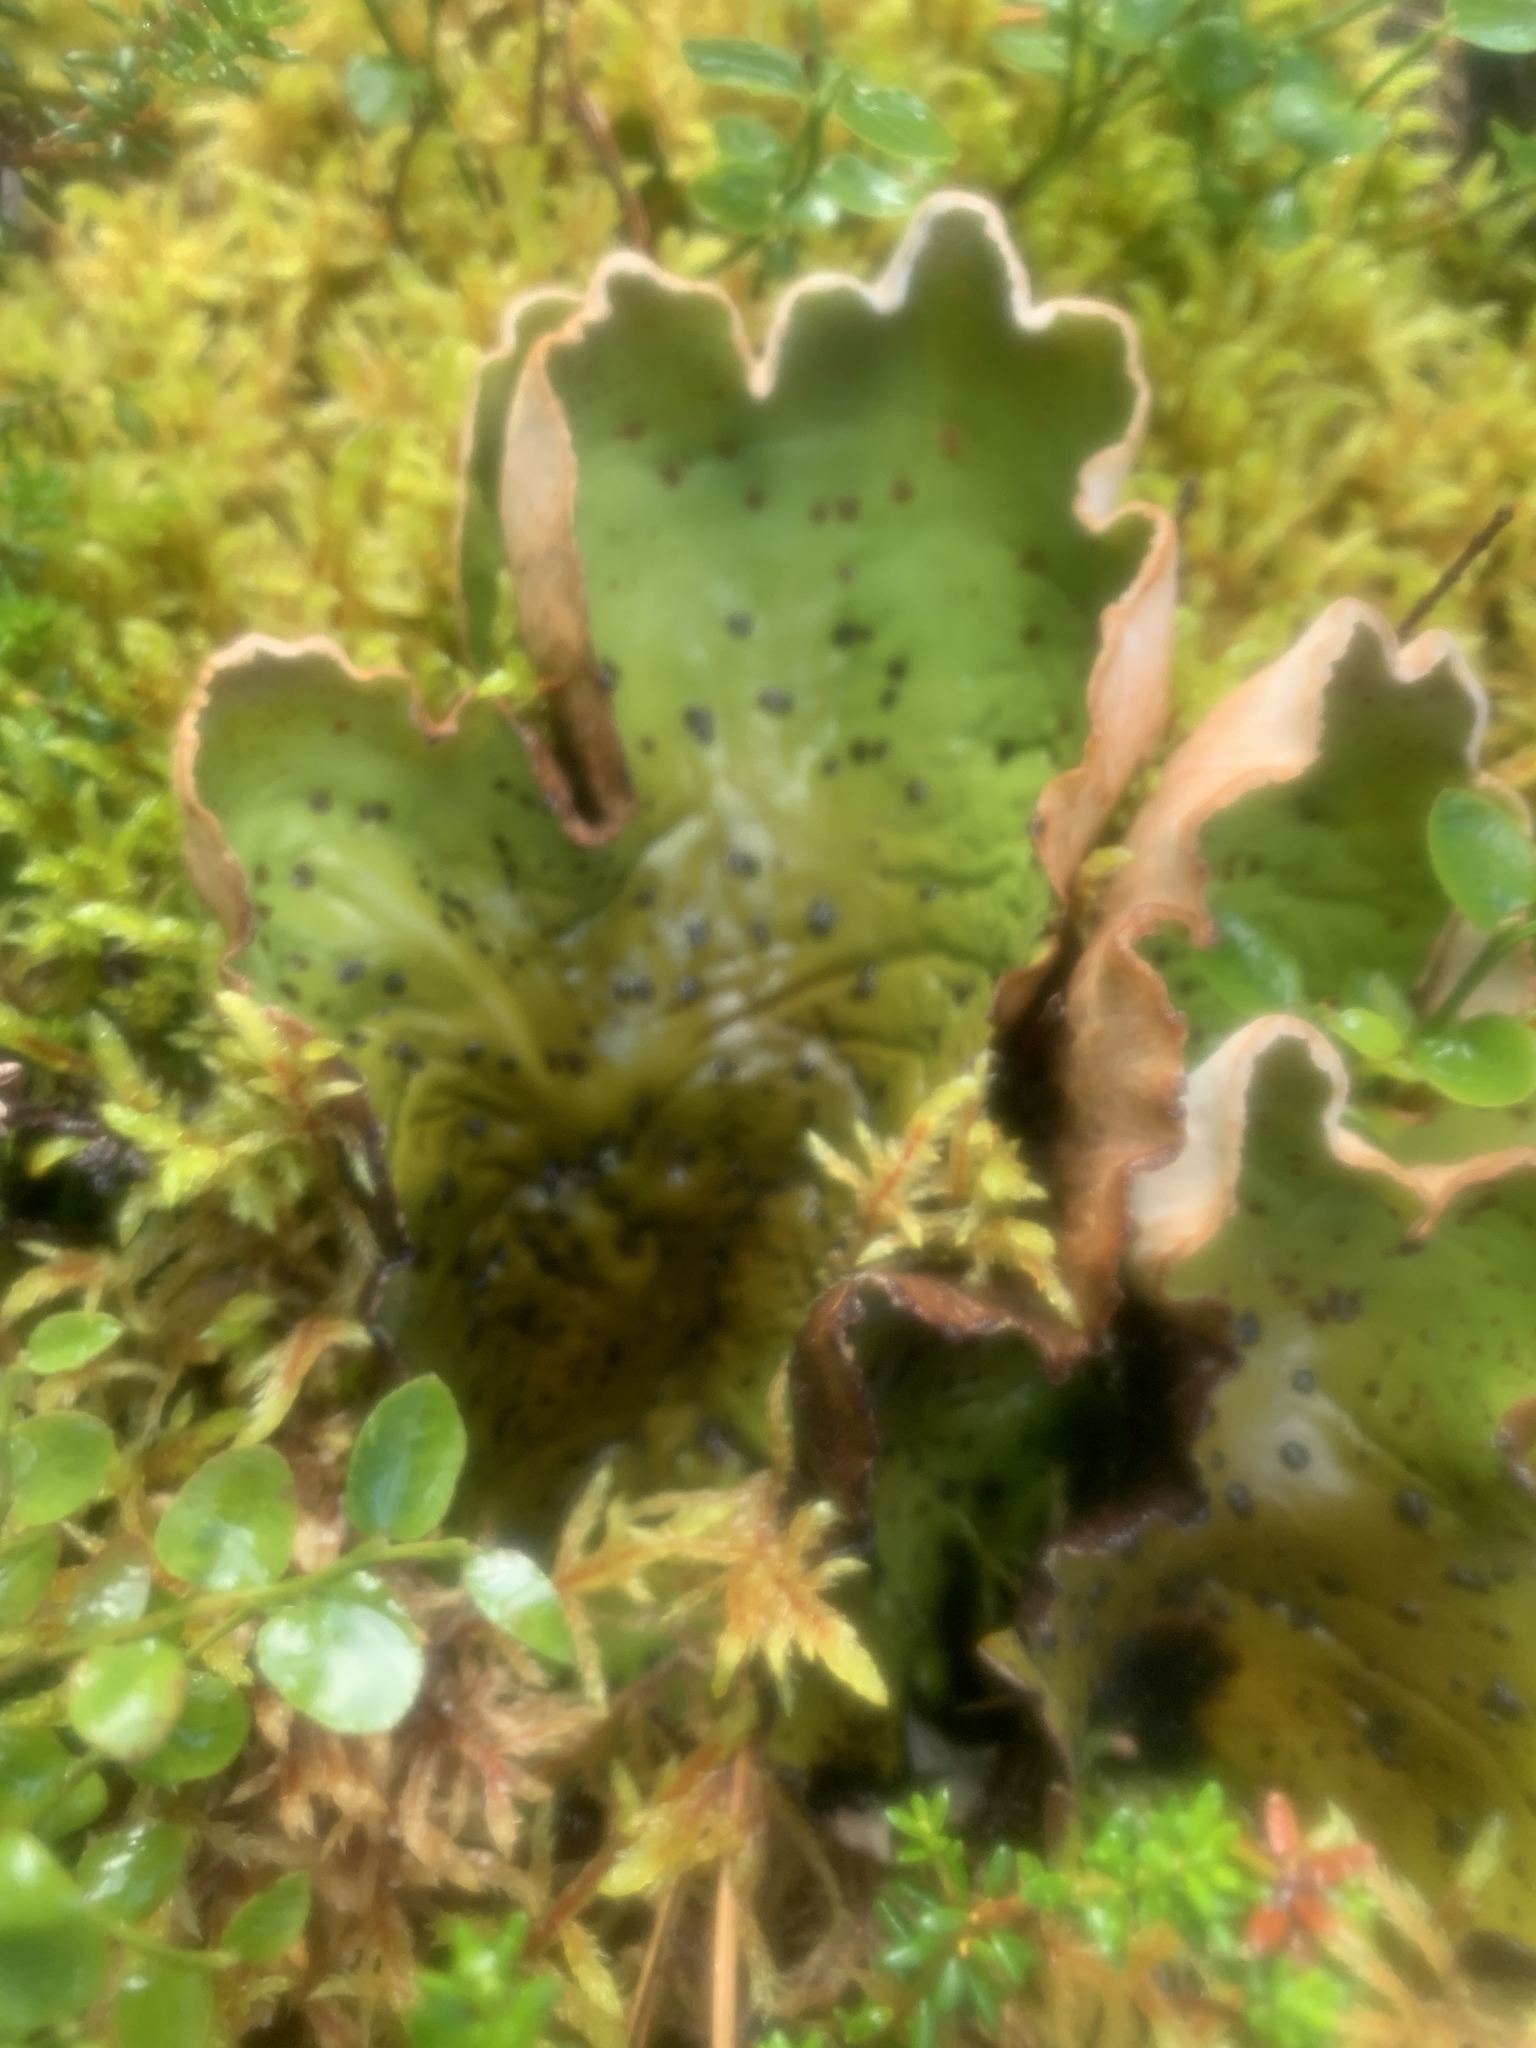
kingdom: Fungi
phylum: Ascomycota
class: Lecanoromycetes
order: Peltigerales
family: Peltigeraceae
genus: Peltigera
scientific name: Peltigera aphthosa
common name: Common freckle pelt lichen
